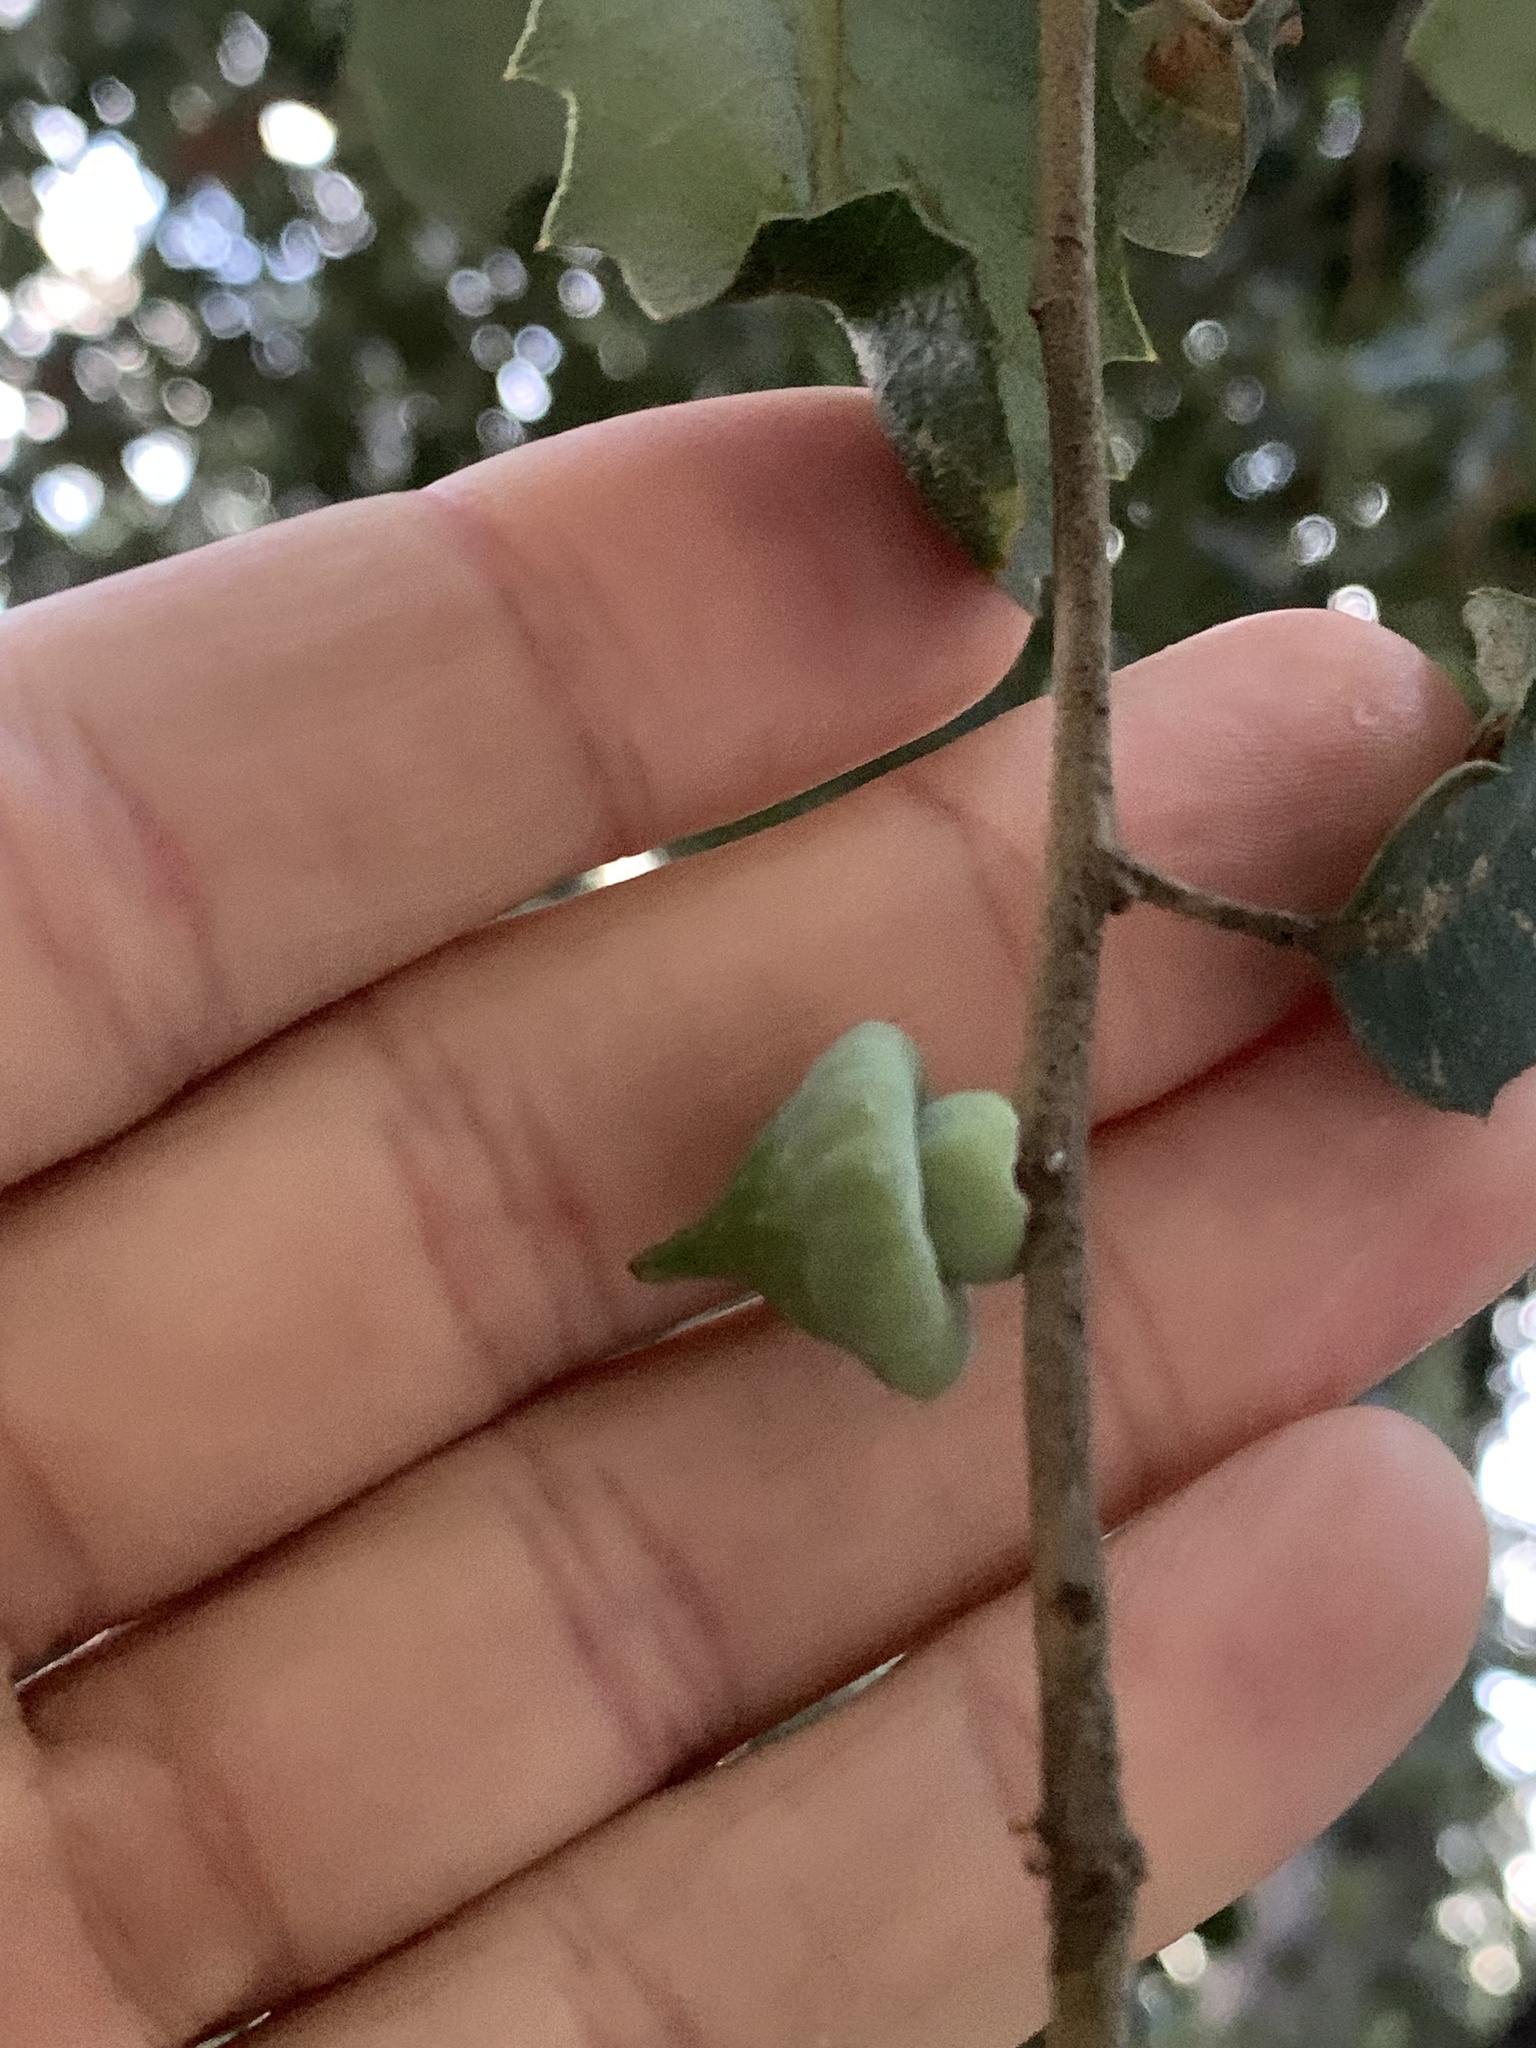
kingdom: Animalia
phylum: Arthropoda
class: Insecta
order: Hymenoptera
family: Cynipidae
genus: Heteroecus
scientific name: Heteroecus
